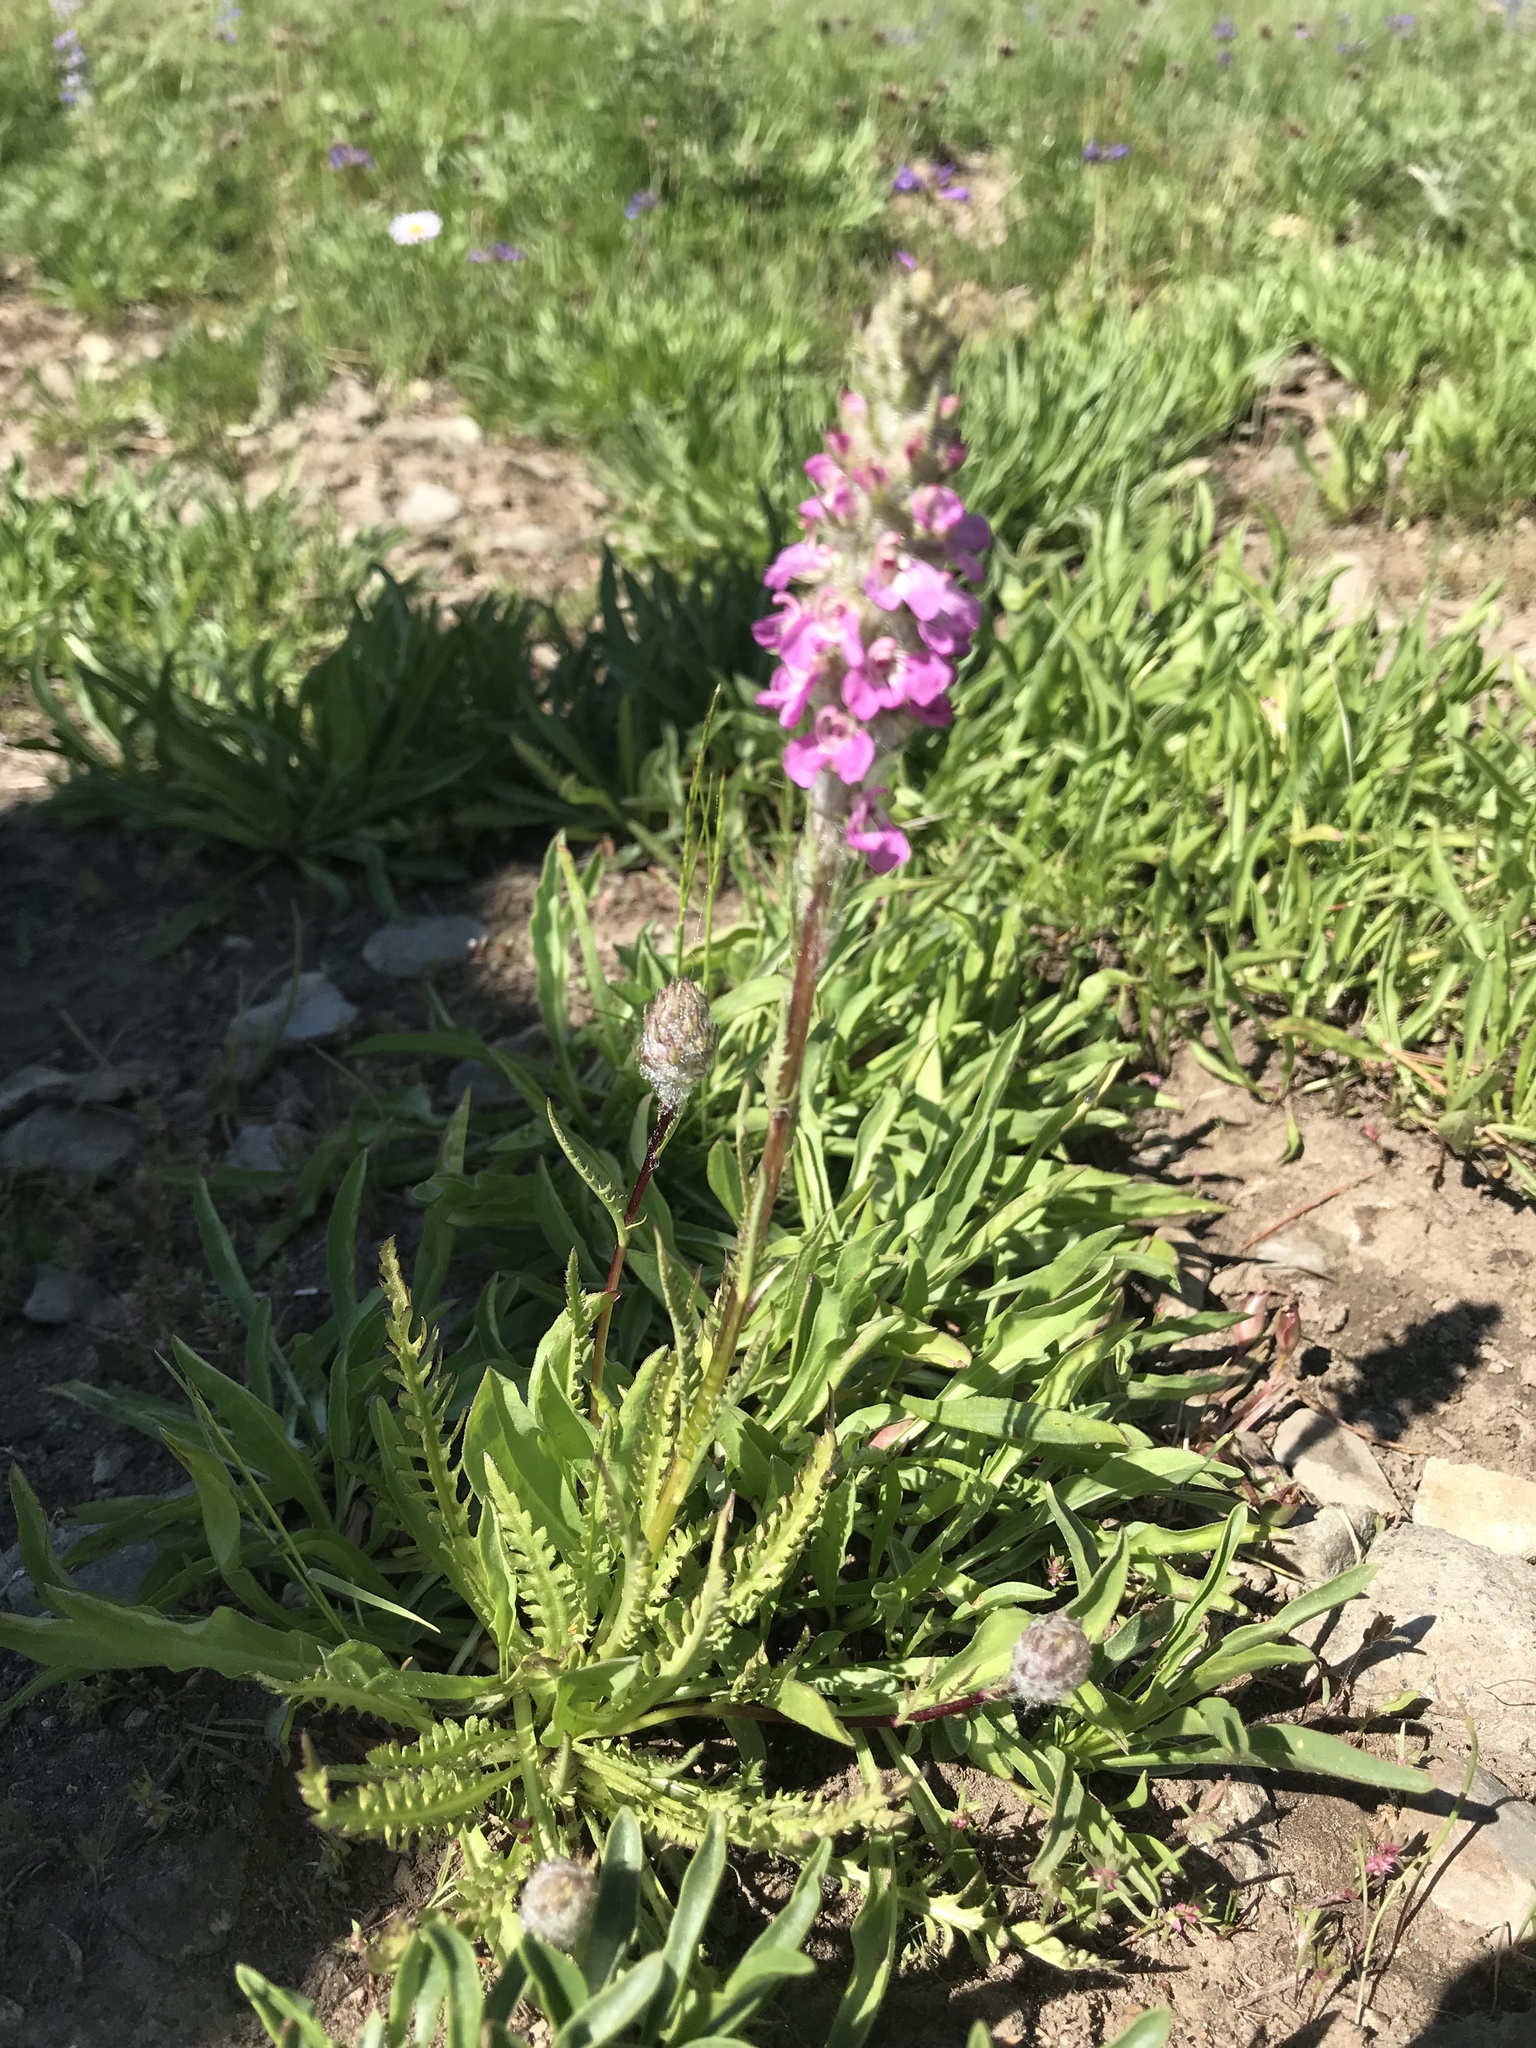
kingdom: Plantae
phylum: Tracheophyta
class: Magnoliopsida
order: Lamiales
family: Orobanchaceae
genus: Pedicularis
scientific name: Pedicularis attollens
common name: Slender pedicularis
